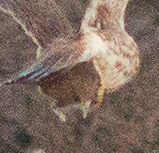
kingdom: Animalia
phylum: Chordata
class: Mammalia
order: Rodentia
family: Cricetidae
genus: Peromyscus
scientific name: Peromyscus maniculatus
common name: Deer mouse
